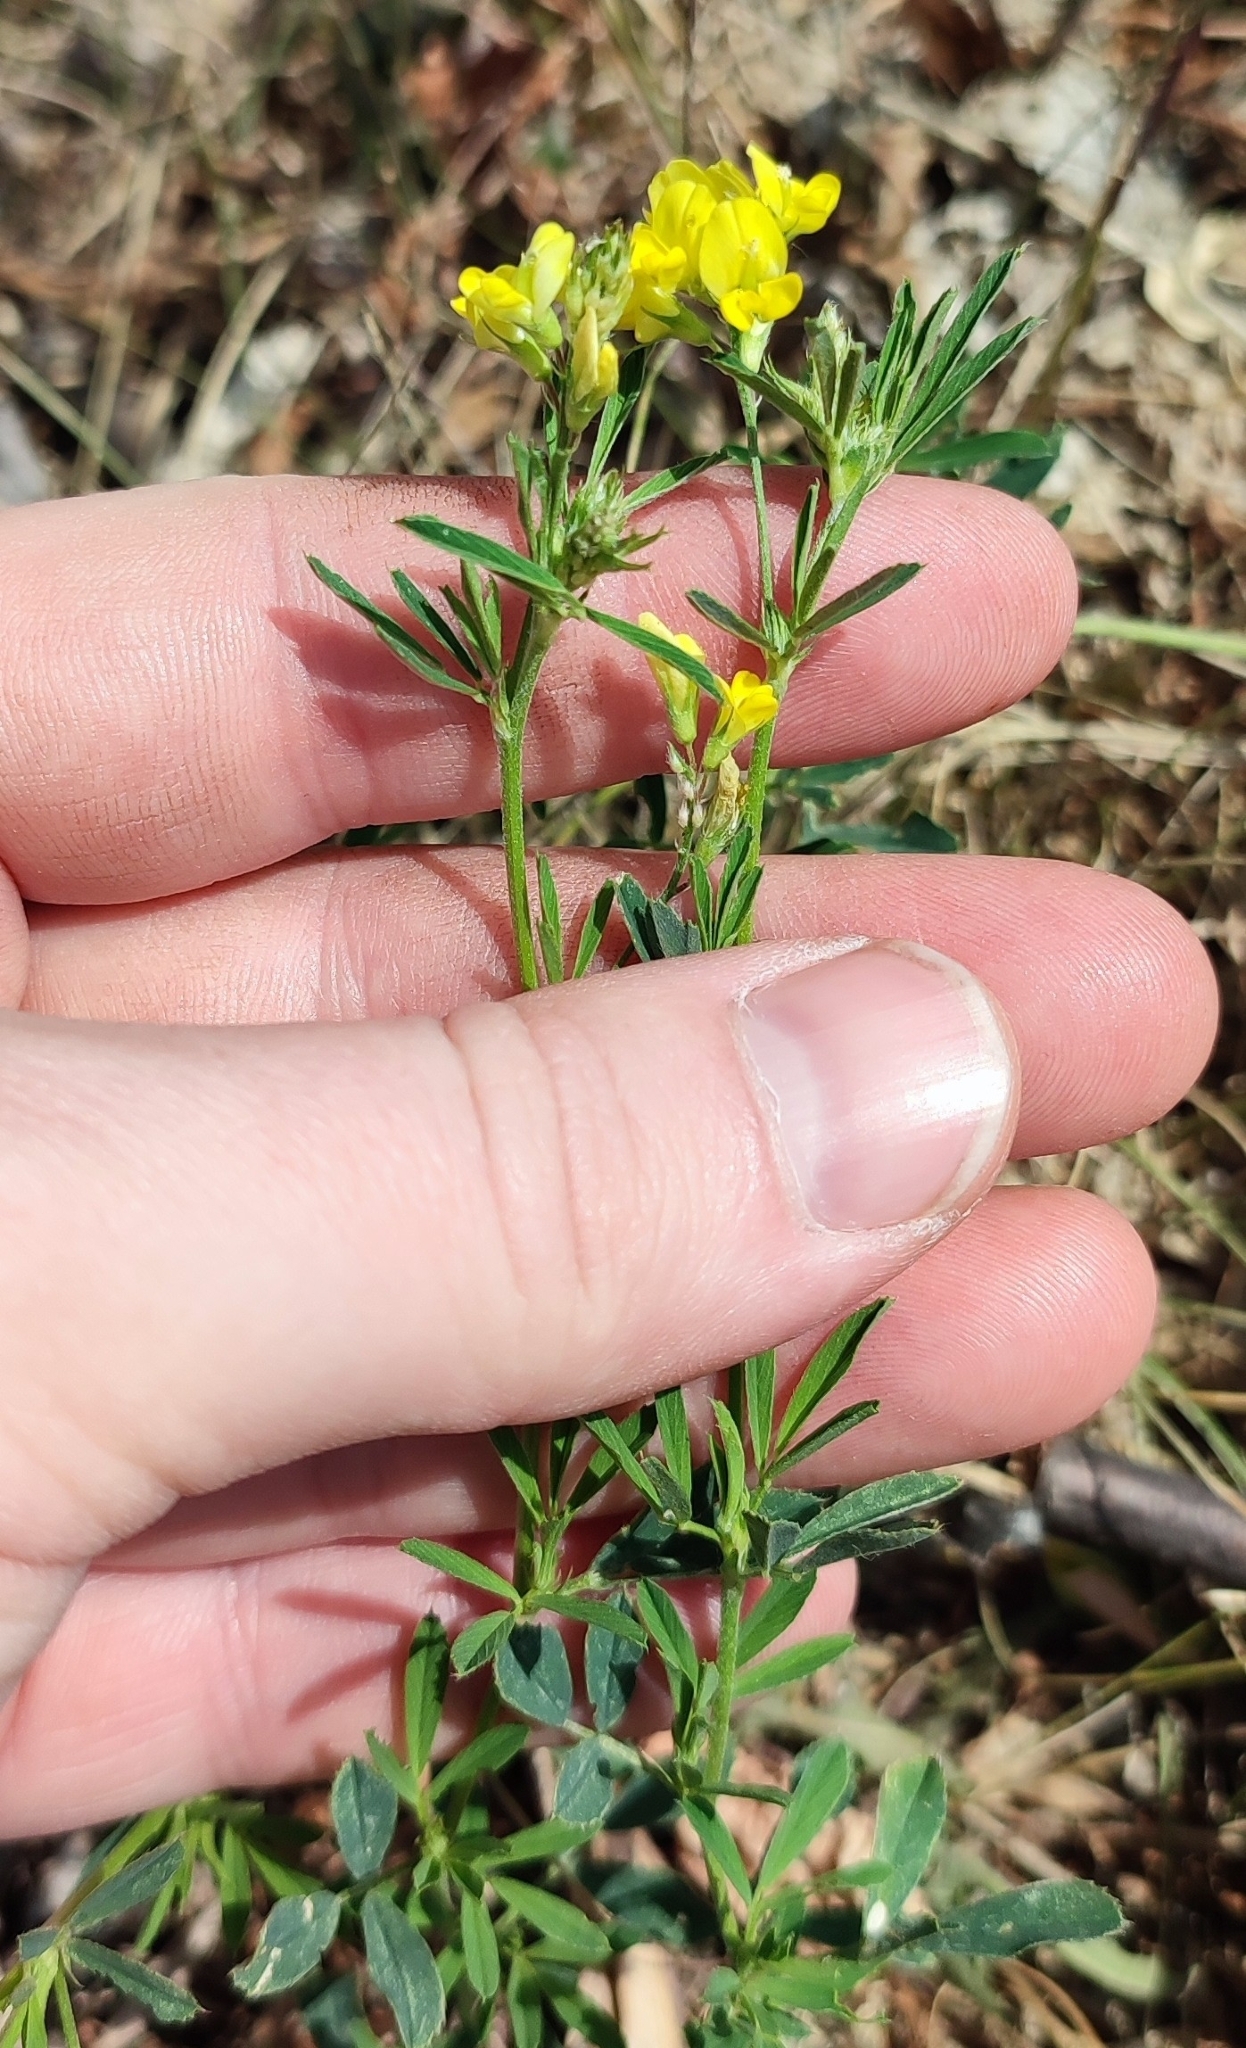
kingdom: Plantae
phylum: Tracheophyta
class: Magnoliopsida
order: Fabales
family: Fabaceae
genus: Medicago
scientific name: Medicago falcata
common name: Sickle medick
